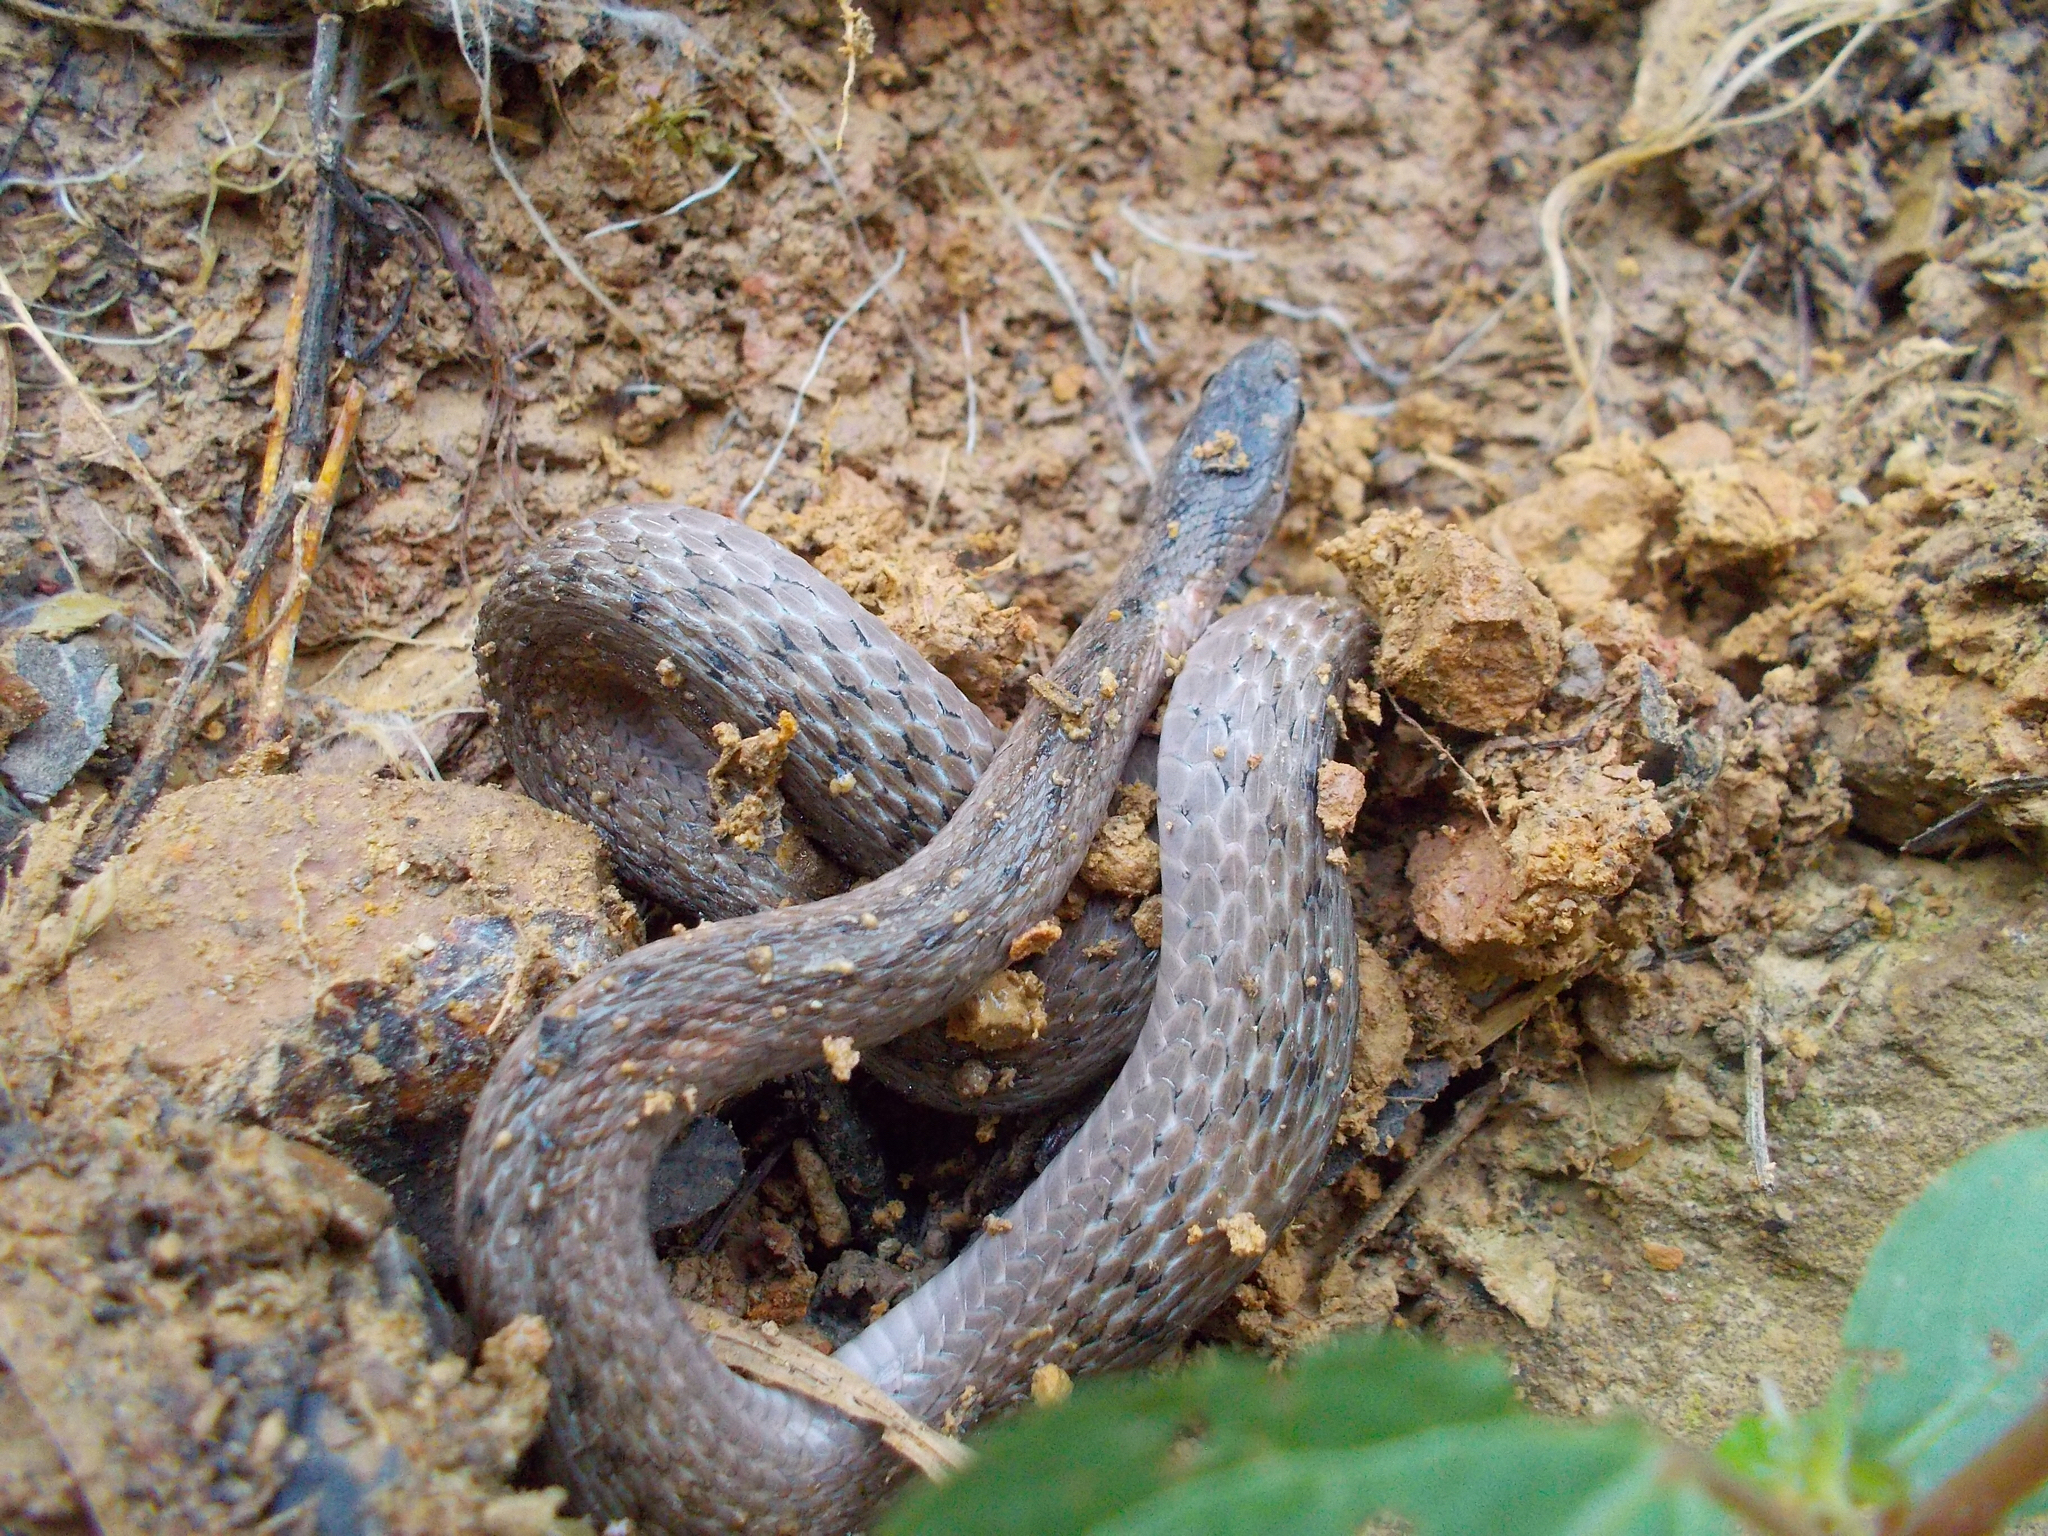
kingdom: Animalia
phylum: Chordata
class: Squamata
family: Colubridae
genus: Storeria
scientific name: Storeria dekayi
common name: (dekay’s) brown snake
